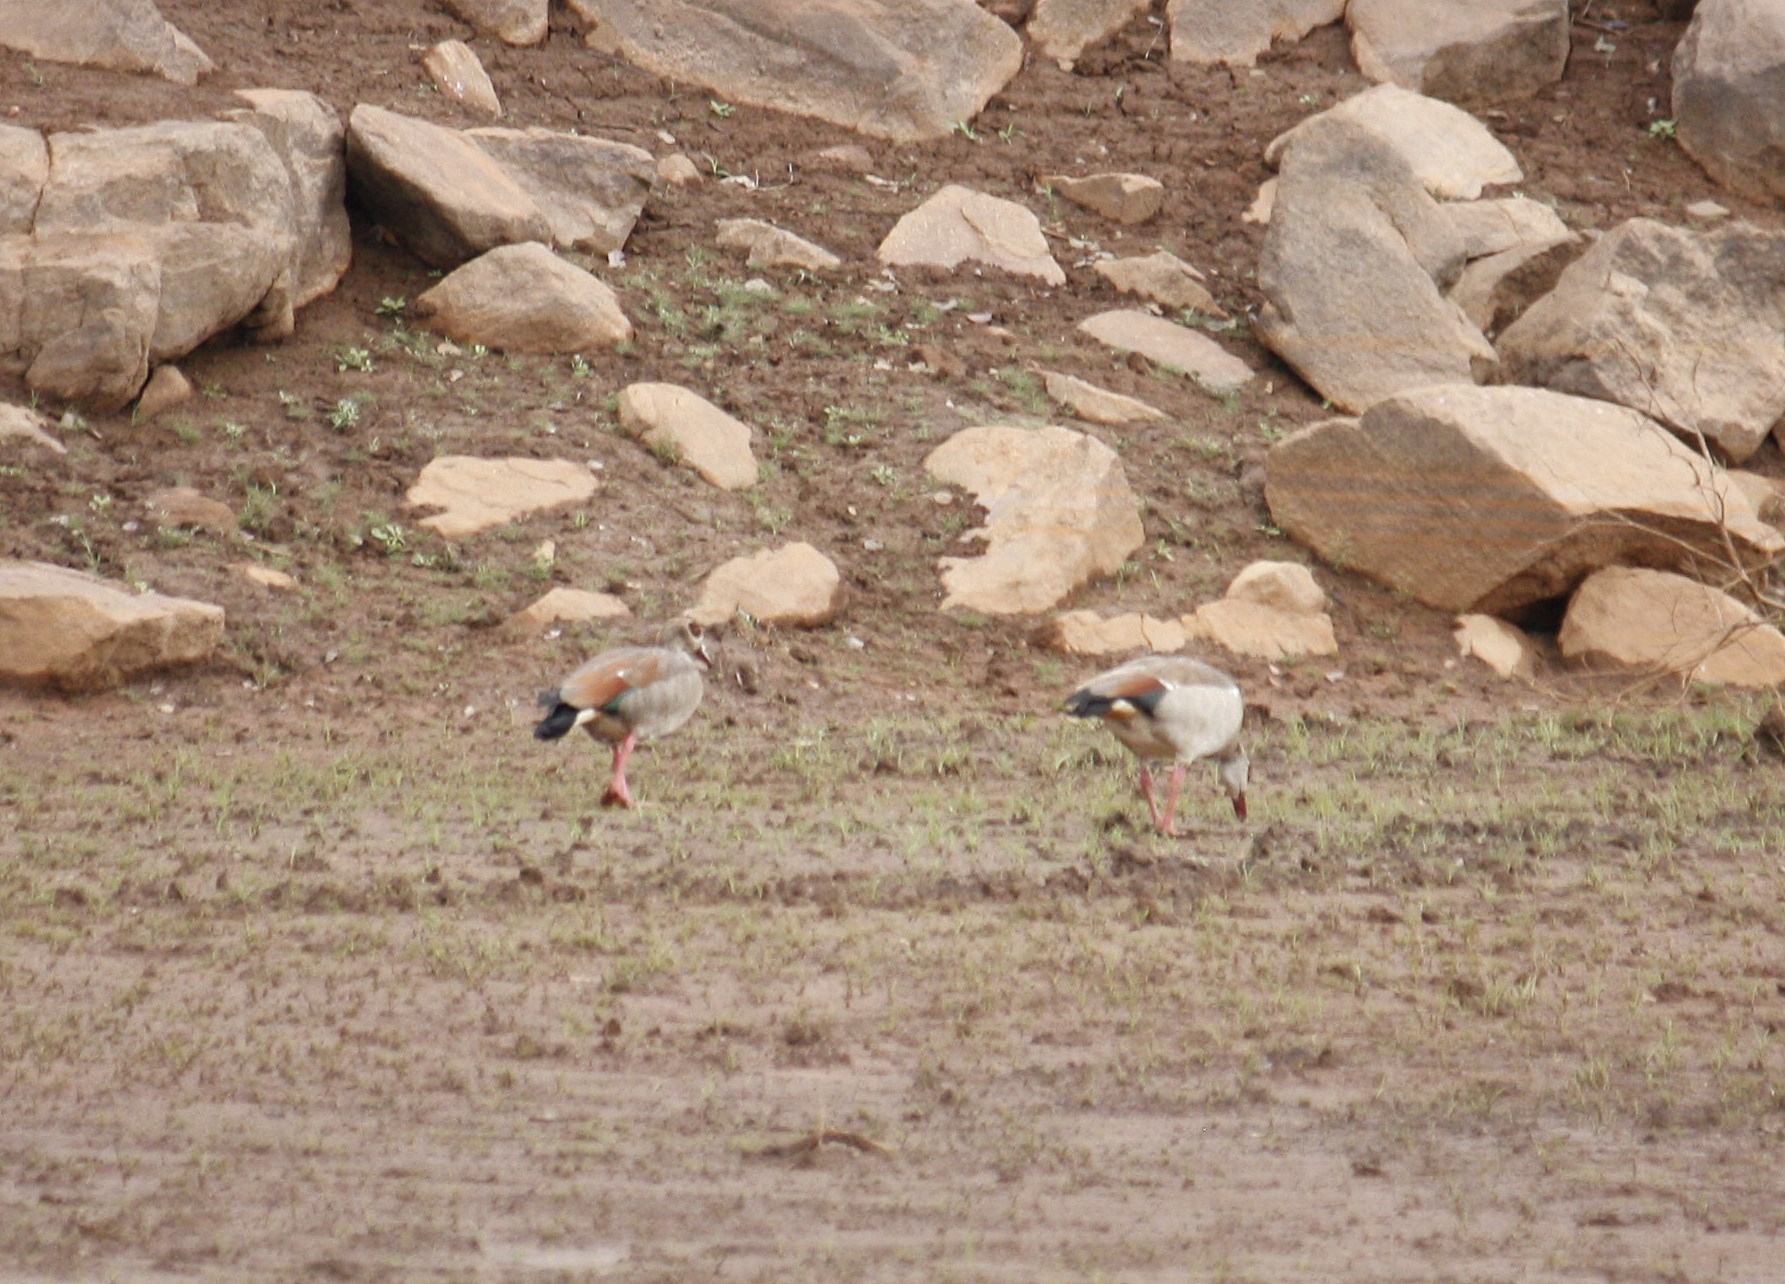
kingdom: Animalia
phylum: Chordata
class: Aves
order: Anseriformes
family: Anatidae
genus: Alopochen
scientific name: Alopochen aegyptiaca
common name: Egyptian goose
